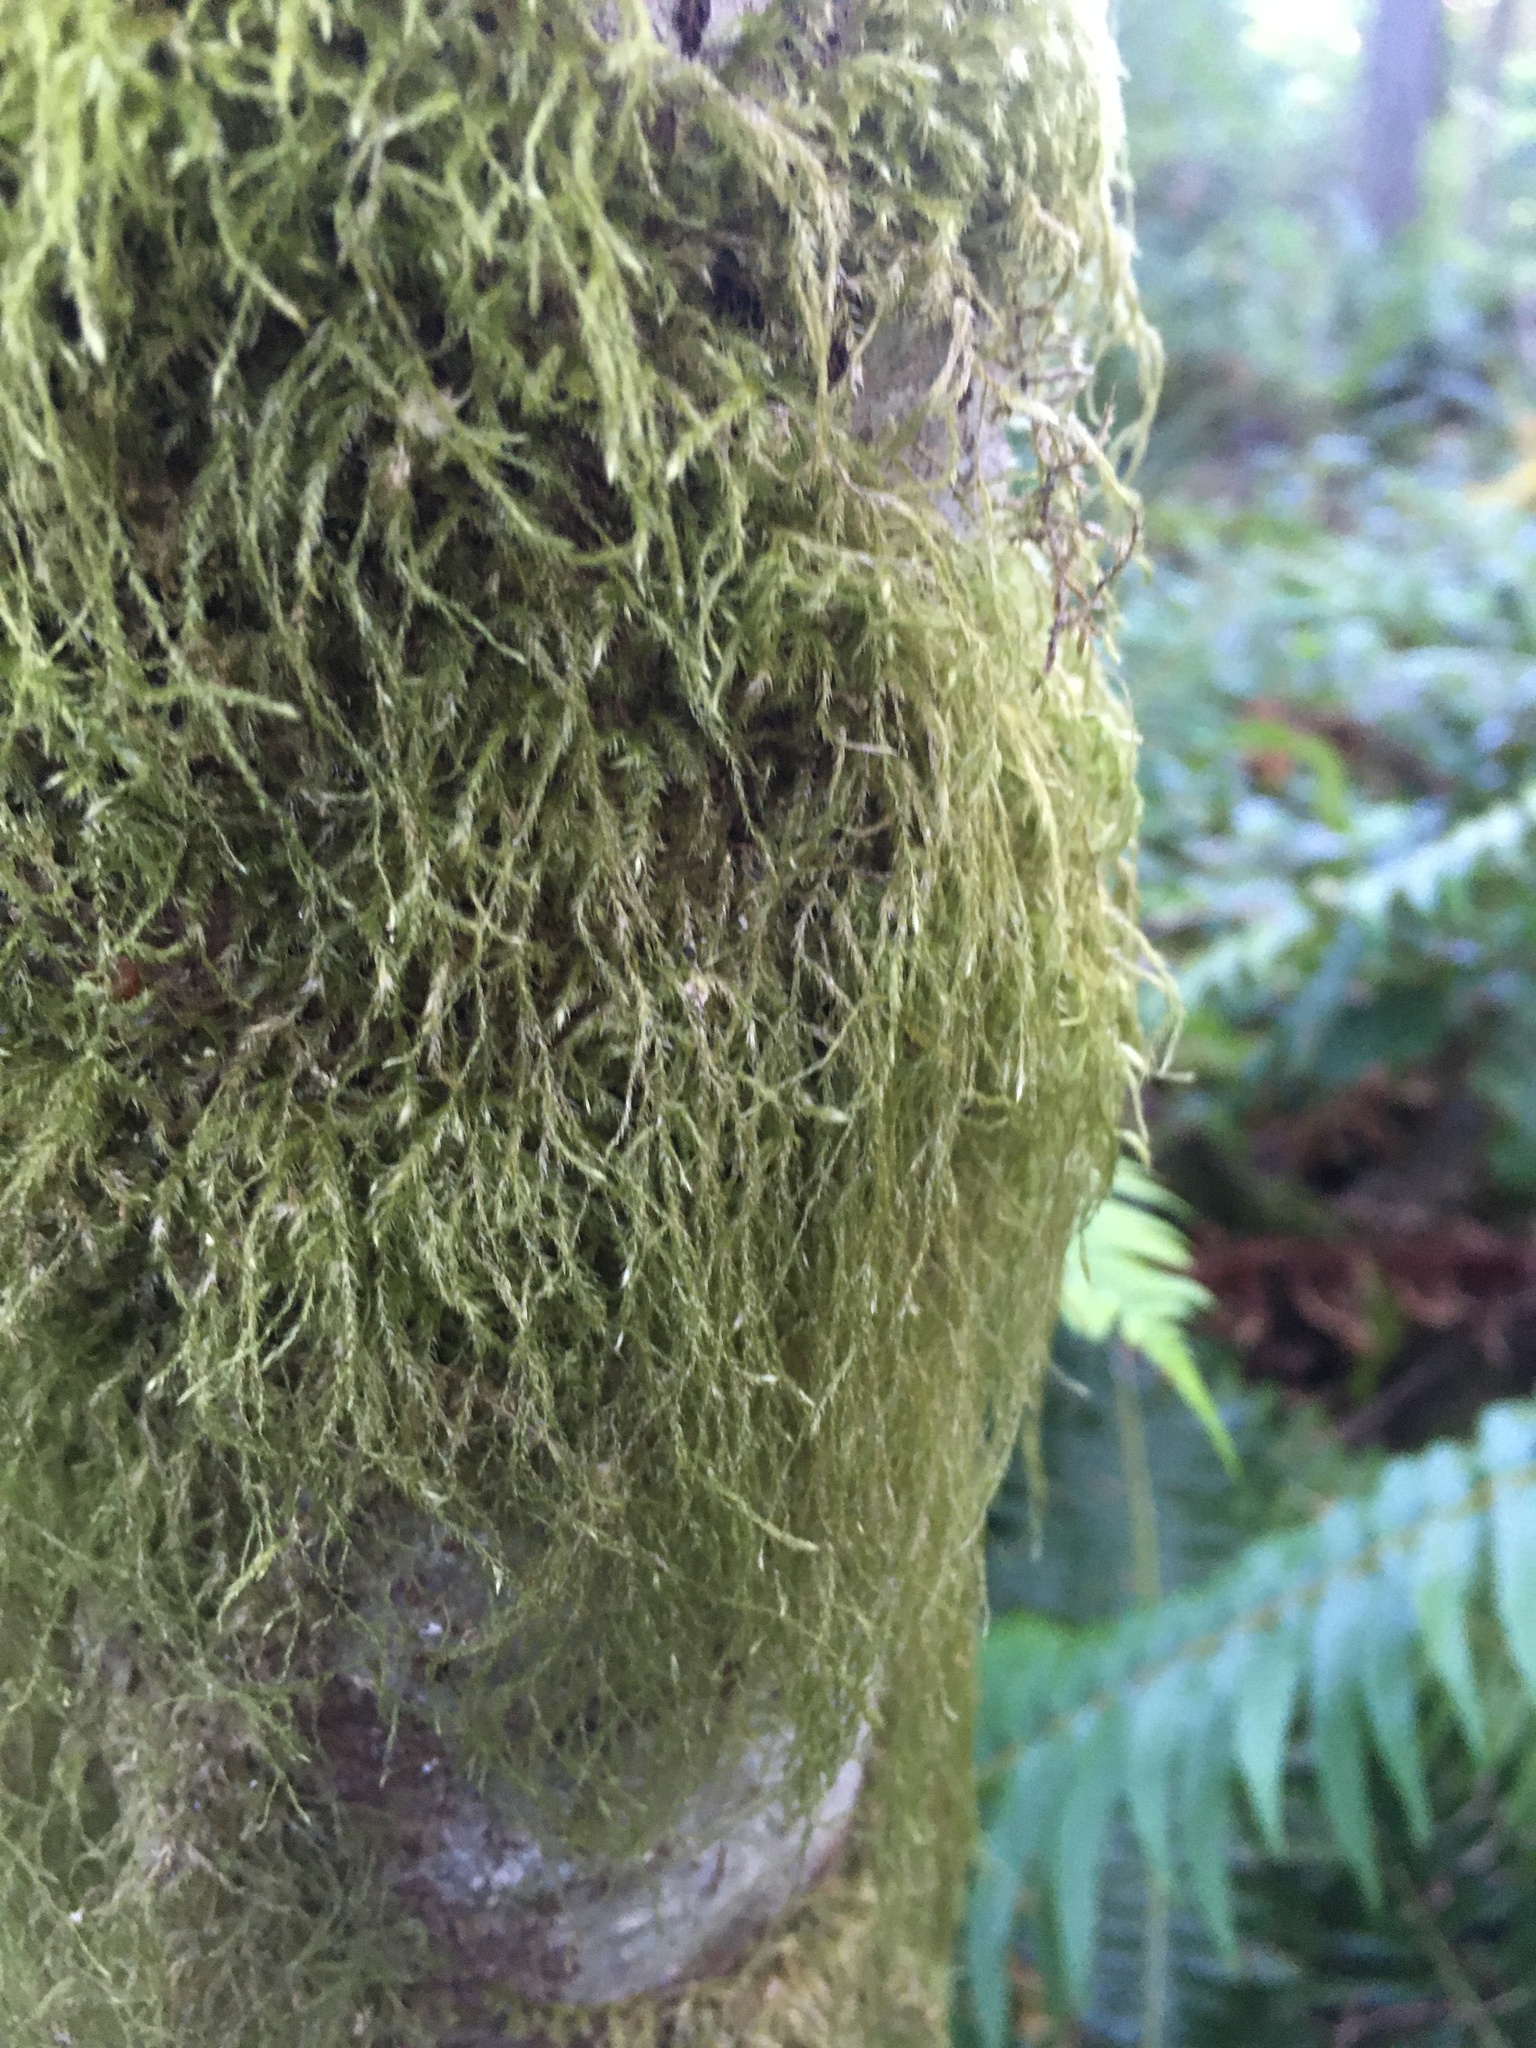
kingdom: Plantae
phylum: Bryophyta
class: Bryopsida
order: Hypnales
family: Lembophyllaceae
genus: Pseudisothecium
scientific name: Pseudisothecium stoloniferum
